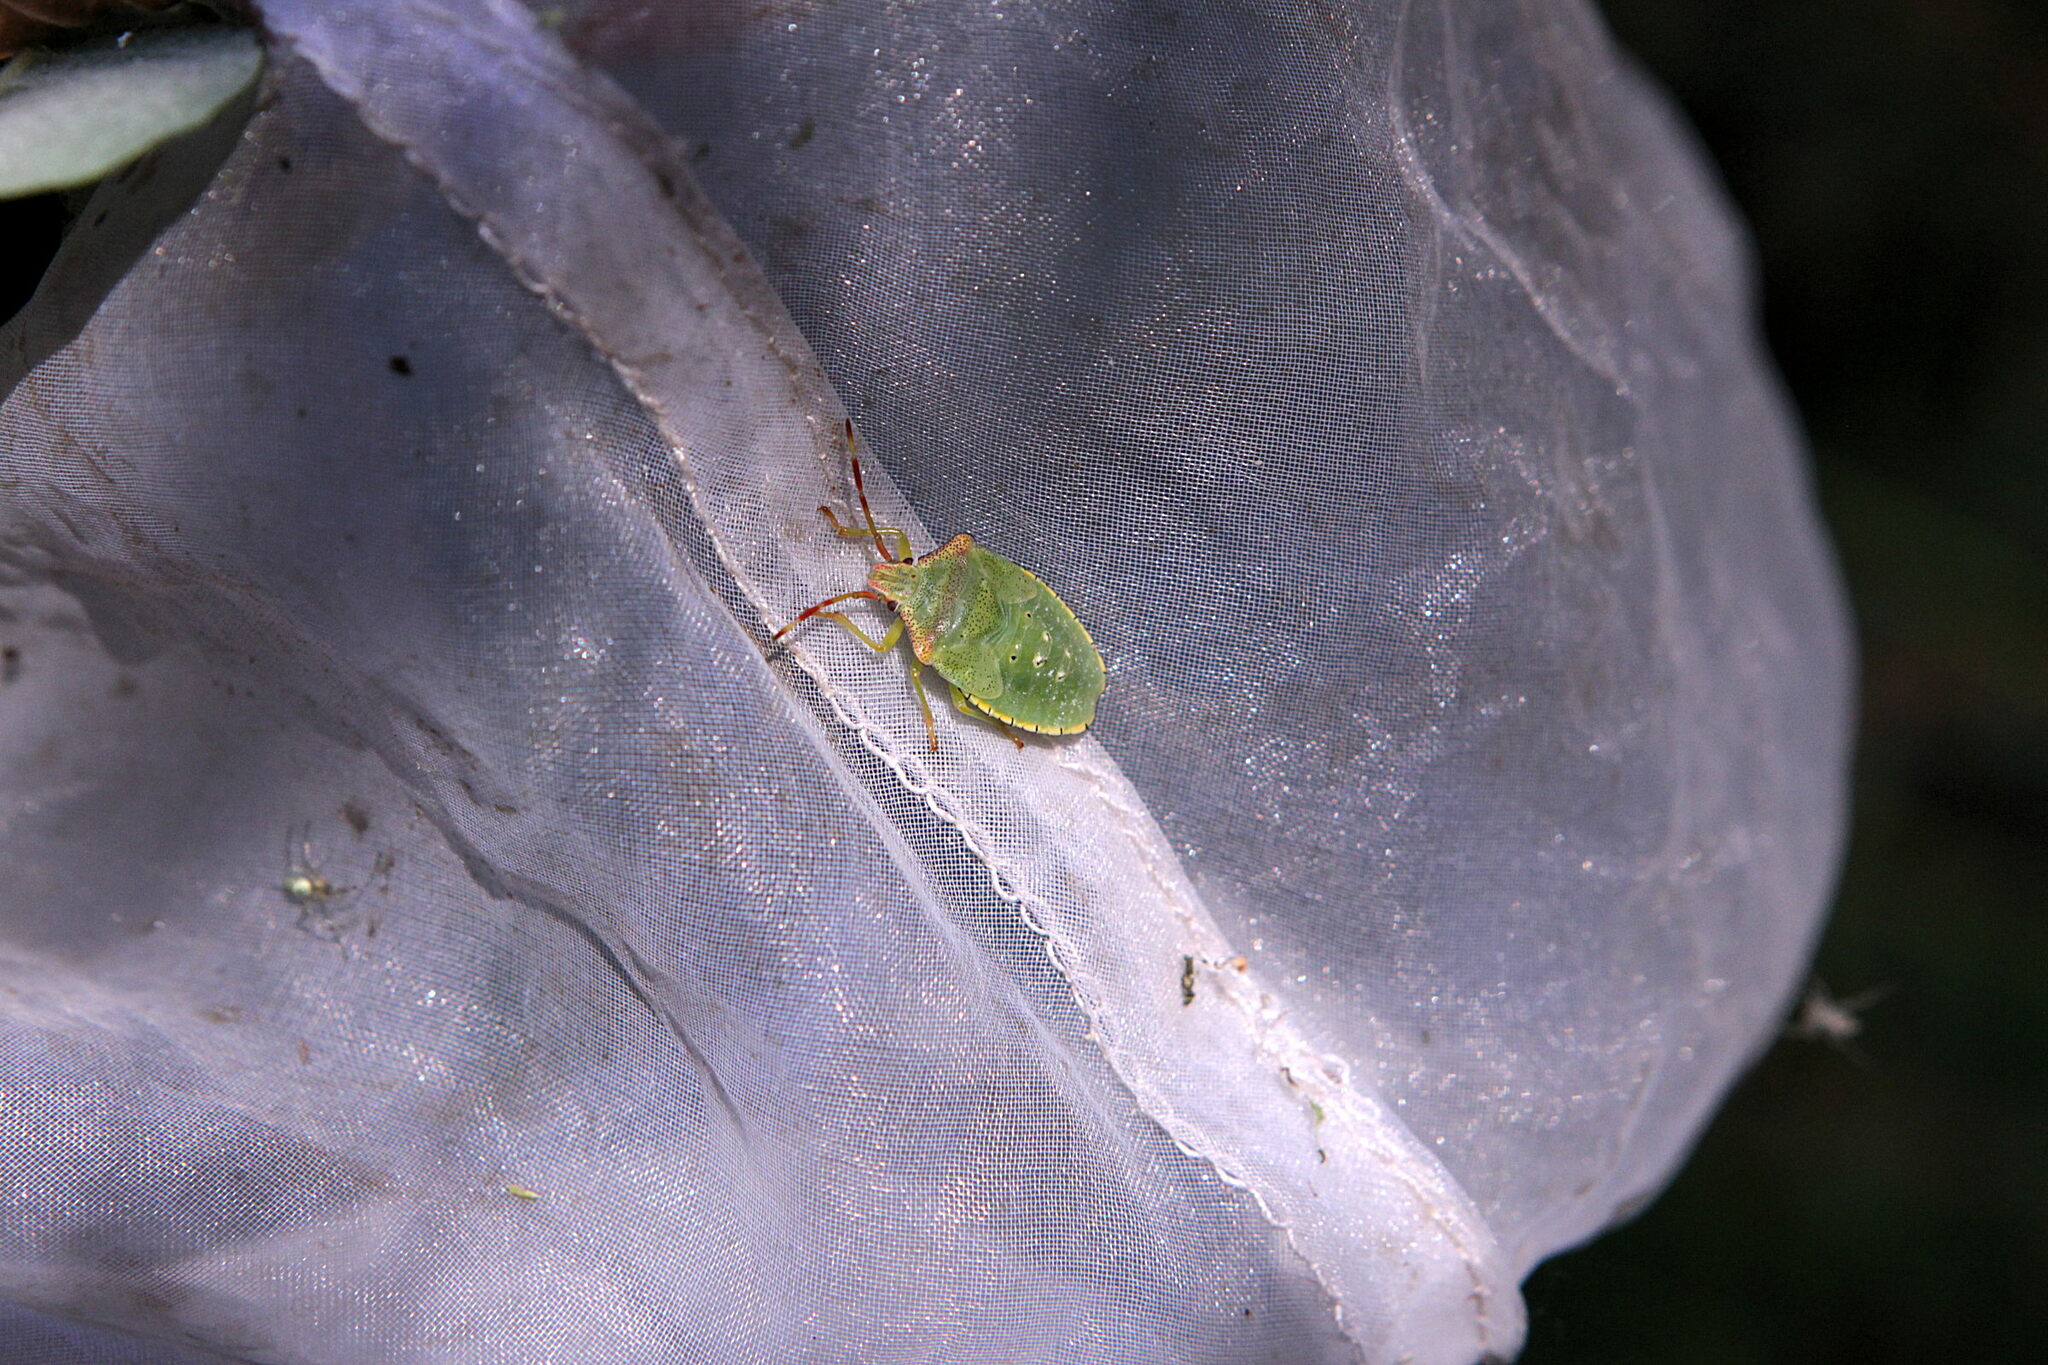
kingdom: Animalia
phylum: Arthropoda
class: Insecta
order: Hemiptera
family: Acanthosomatidae
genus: Acanthosoma
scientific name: Acanthosoma haemorrhoidale
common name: Hawthorn shieldbug
